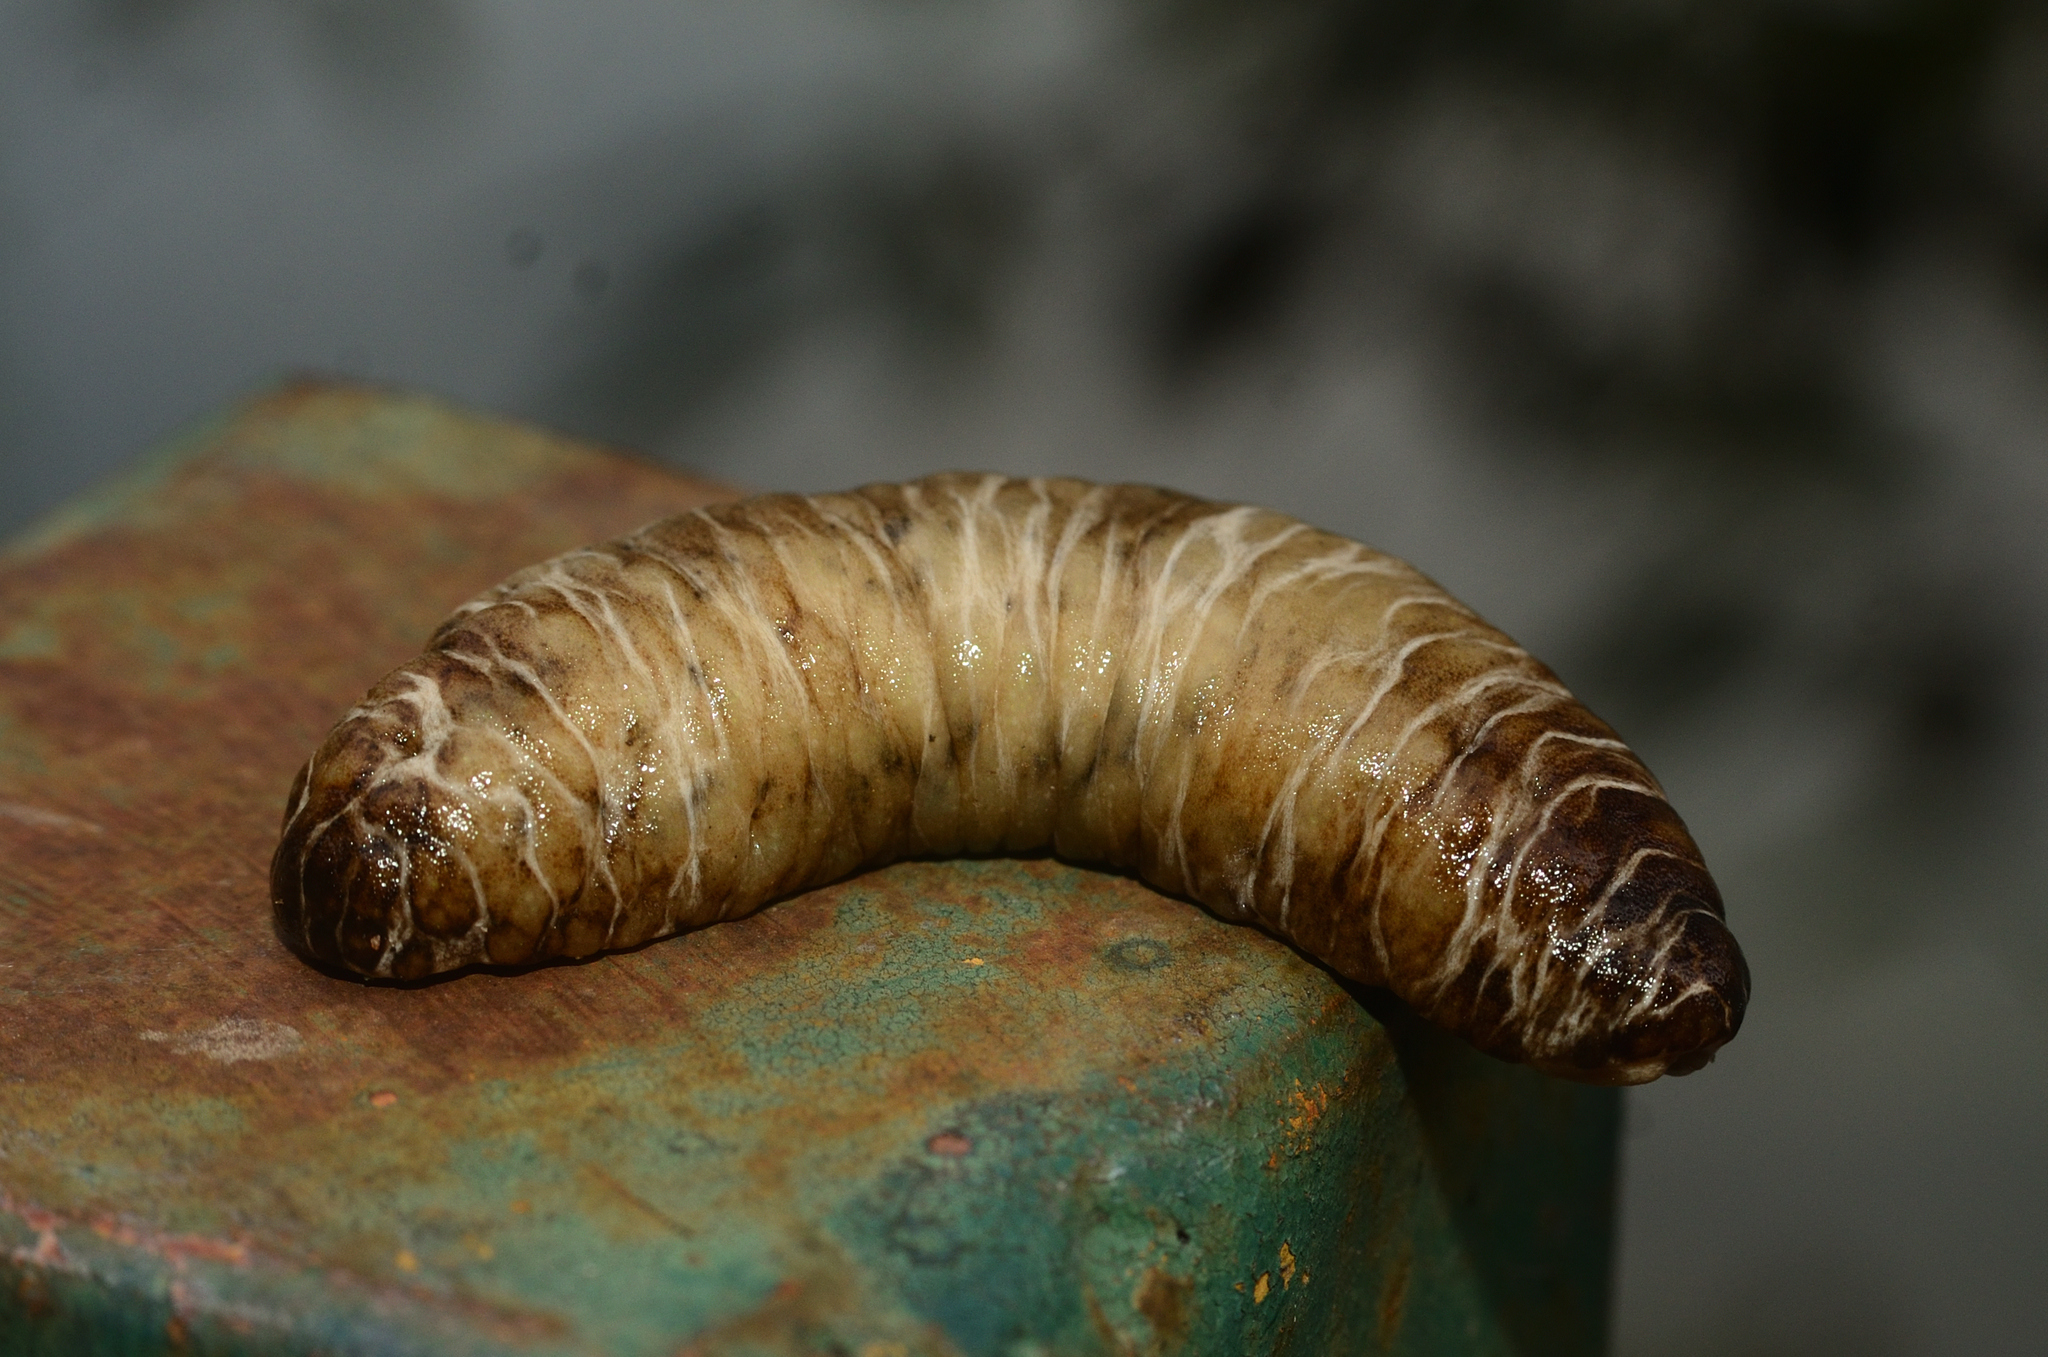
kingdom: Animalia
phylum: Mollusca
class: Gastropoda
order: Systellommatophora
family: Veronicellidae
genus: Laevicaulis
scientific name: Laevicaulis haroldi
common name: Caterpillar slug
